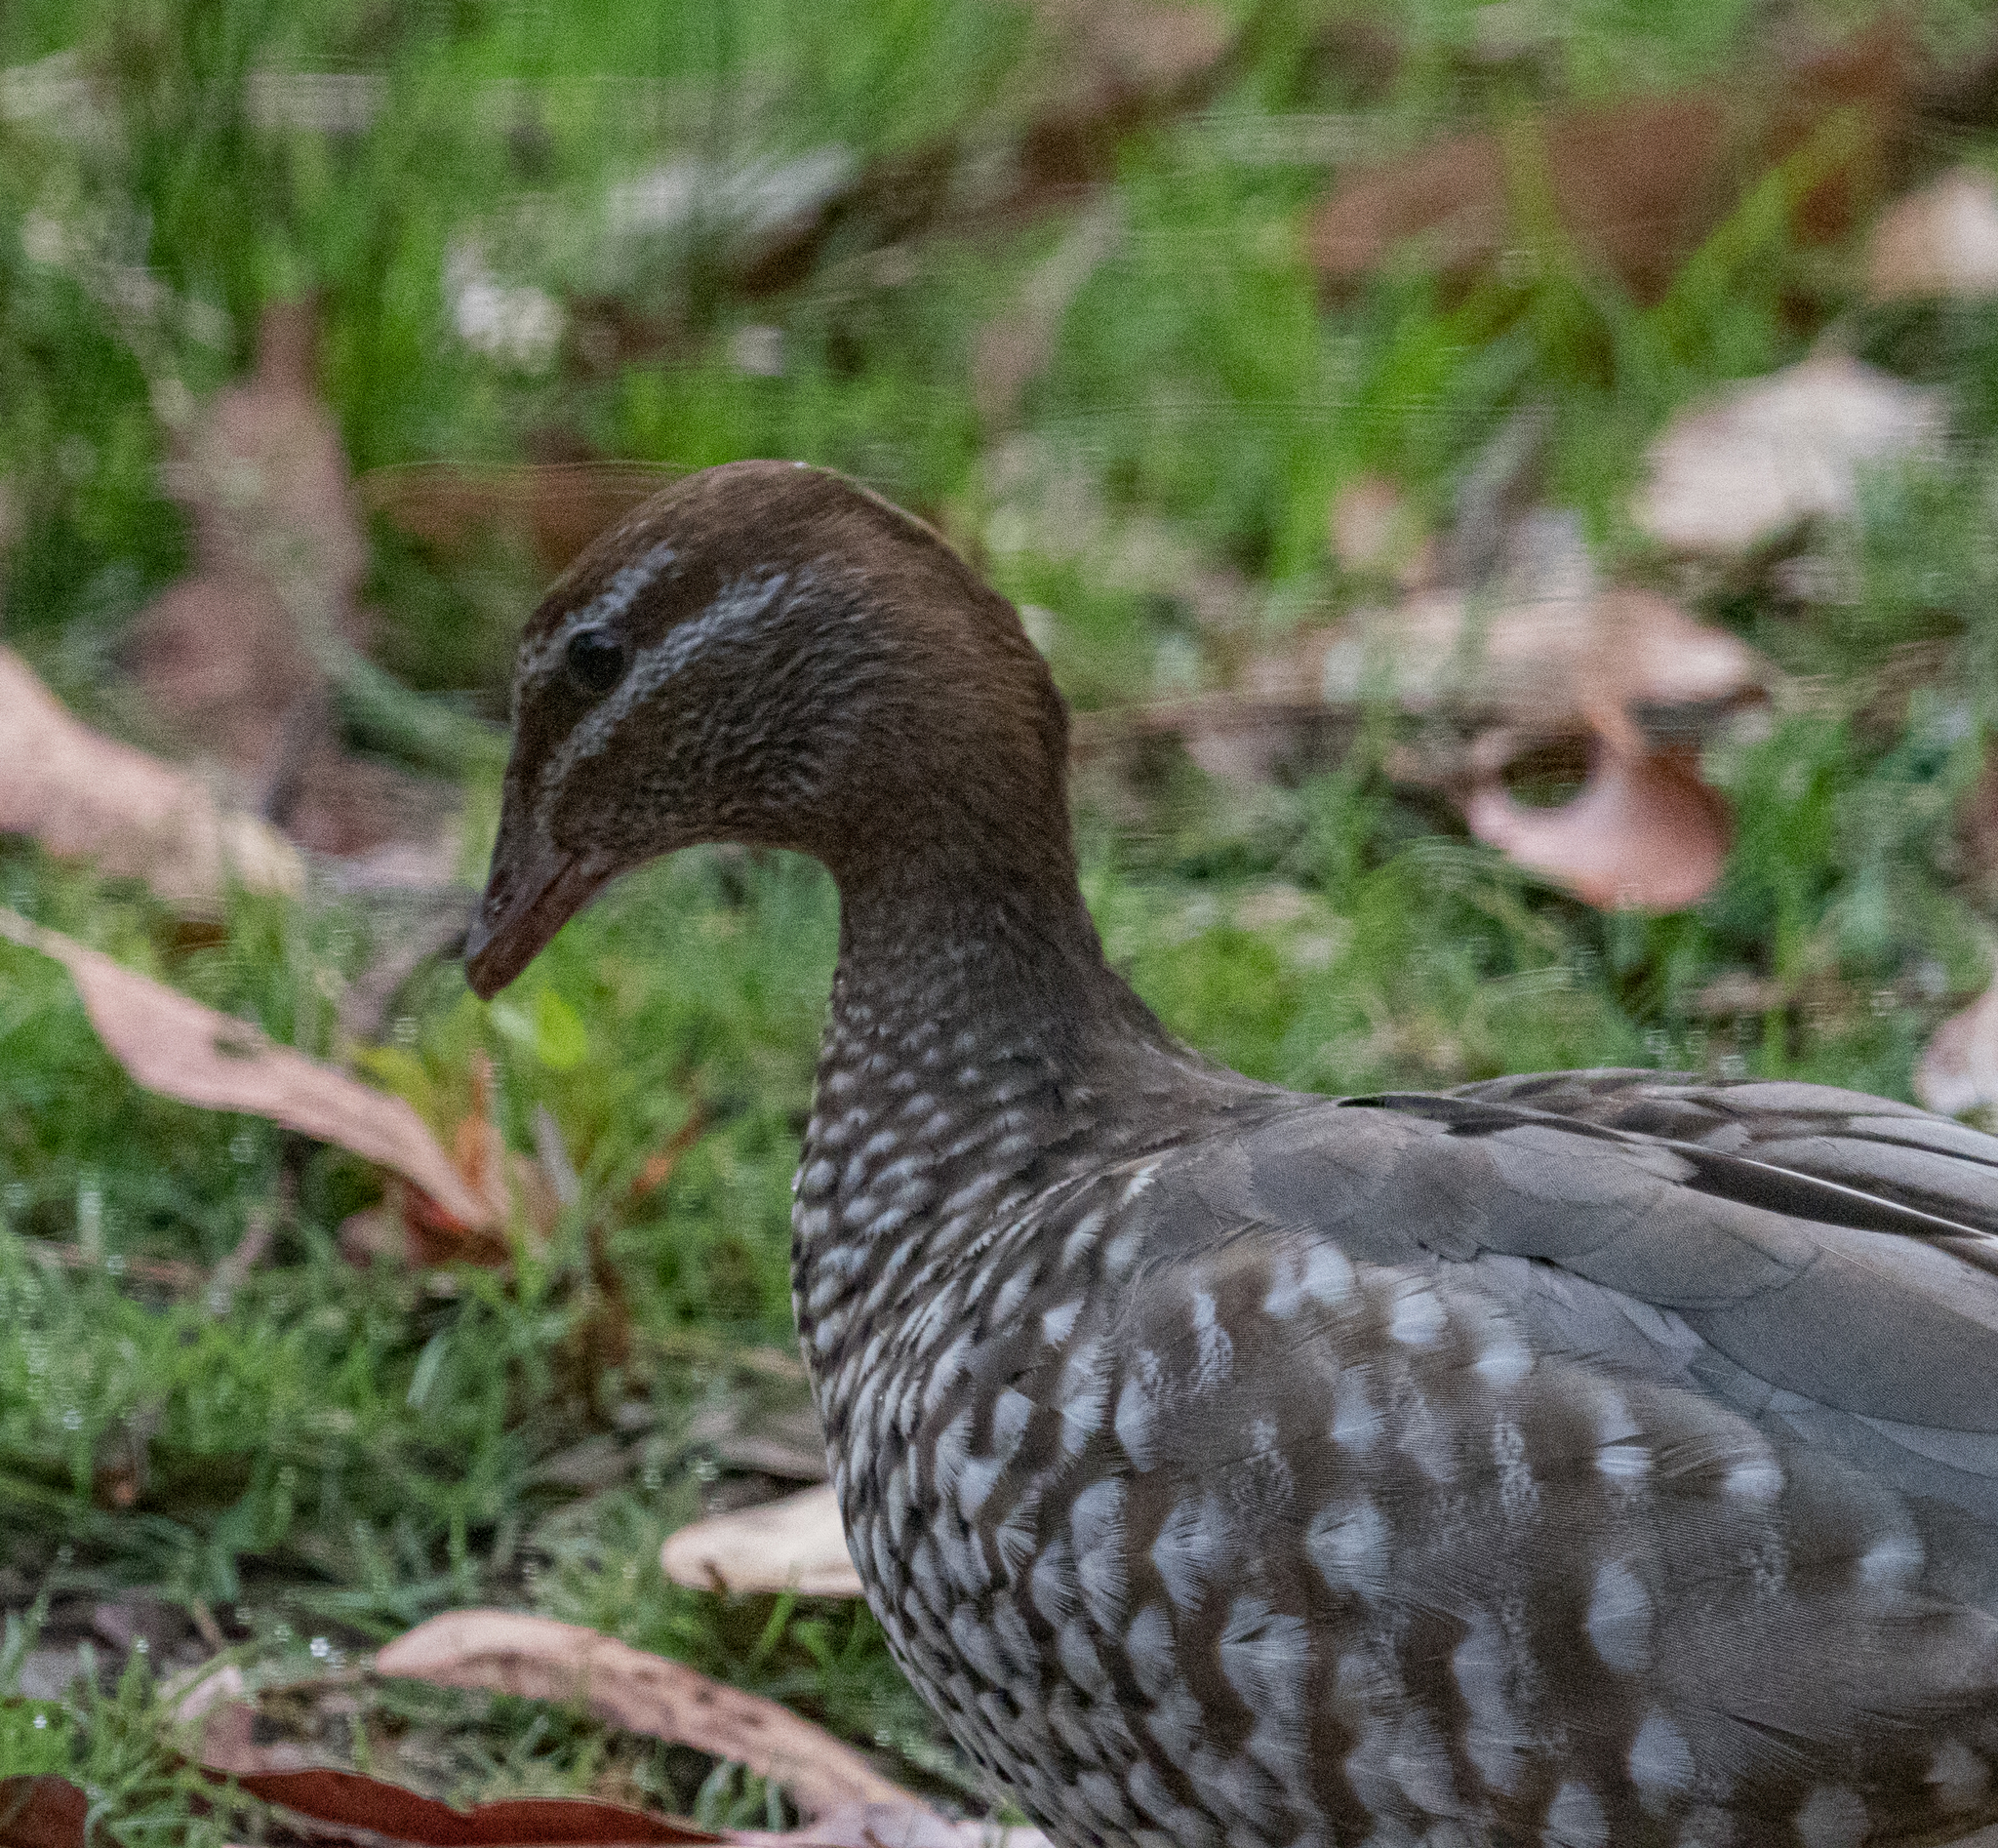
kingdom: Animalia
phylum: Chordata
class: Aves
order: Anseriformes
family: Anatidae
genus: Chenonetta
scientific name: Chenonetta jubata
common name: Maned duck
